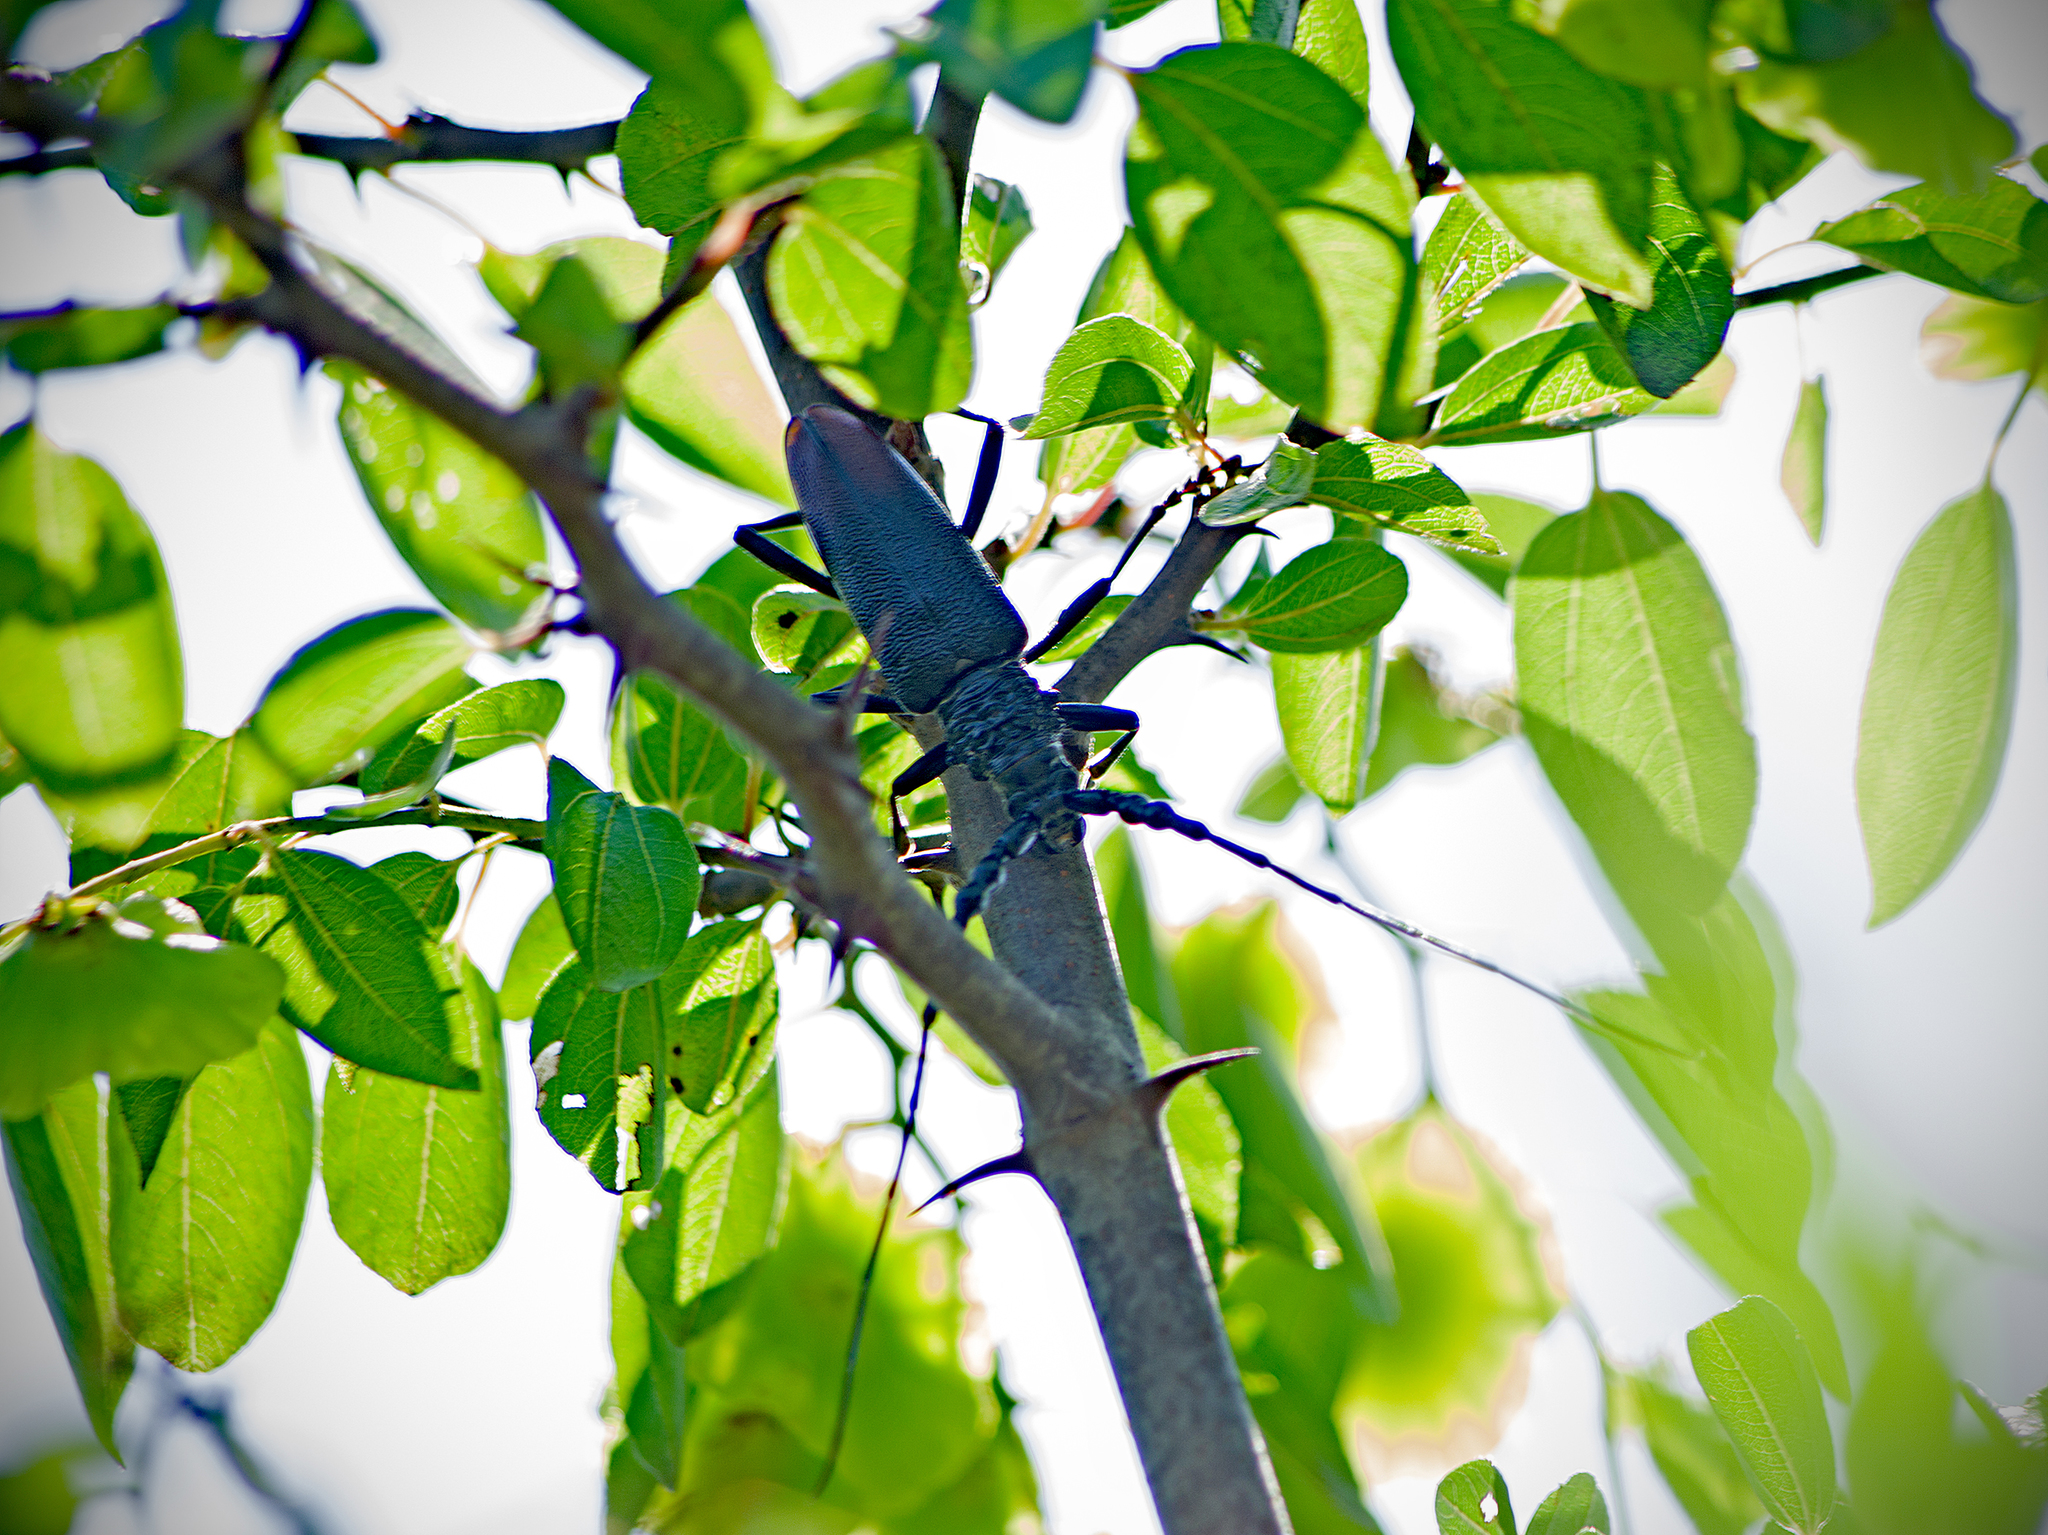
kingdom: Animalia
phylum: Arthropoda
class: Insecta
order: Coleoptera
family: Cerambycidae
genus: Cerambyx
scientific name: Cerambyx nodulosus
